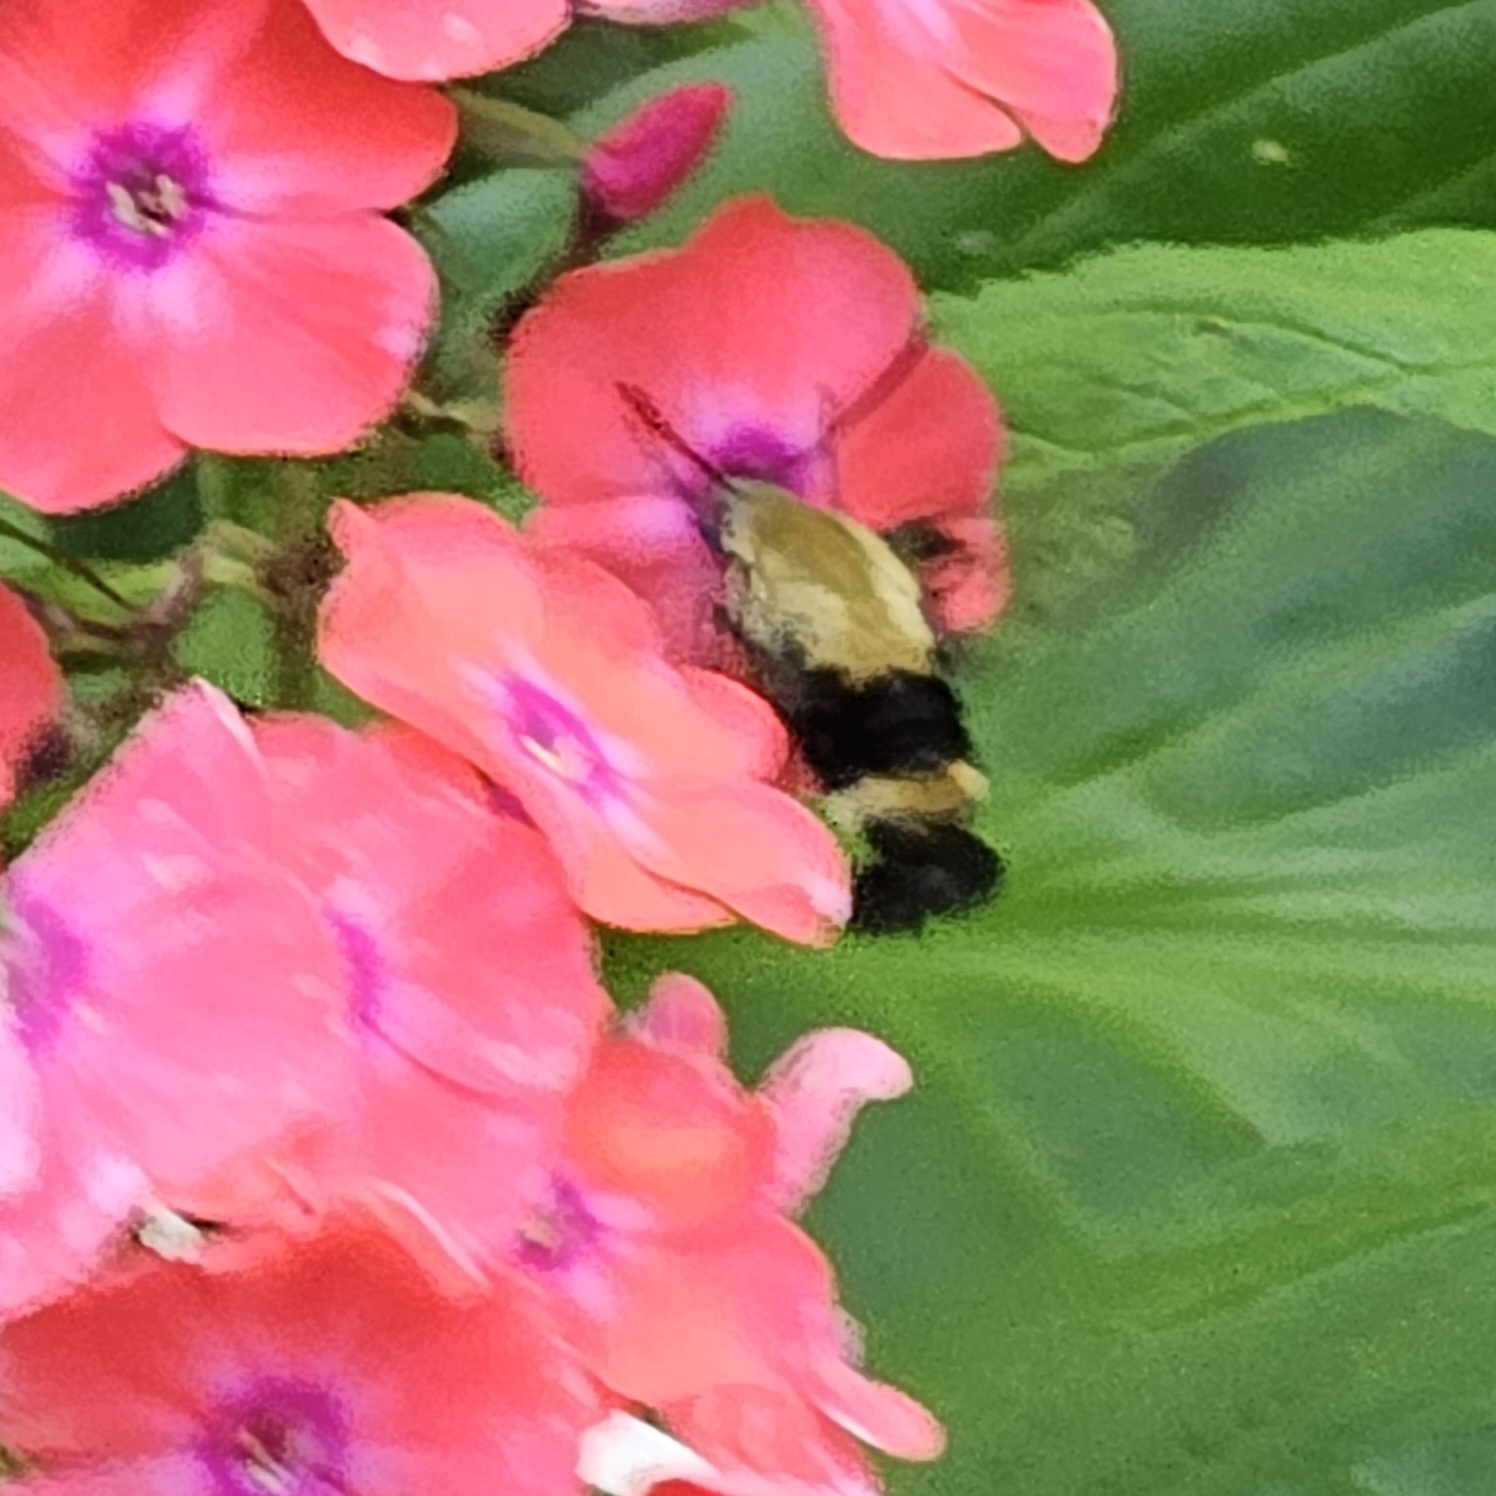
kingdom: Animalia
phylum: Arthropoda
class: Insecta
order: Lepidoptera
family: Sphingidae
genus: Hemaris
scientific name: Hemaris diffinis
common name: Bumblebee moth
